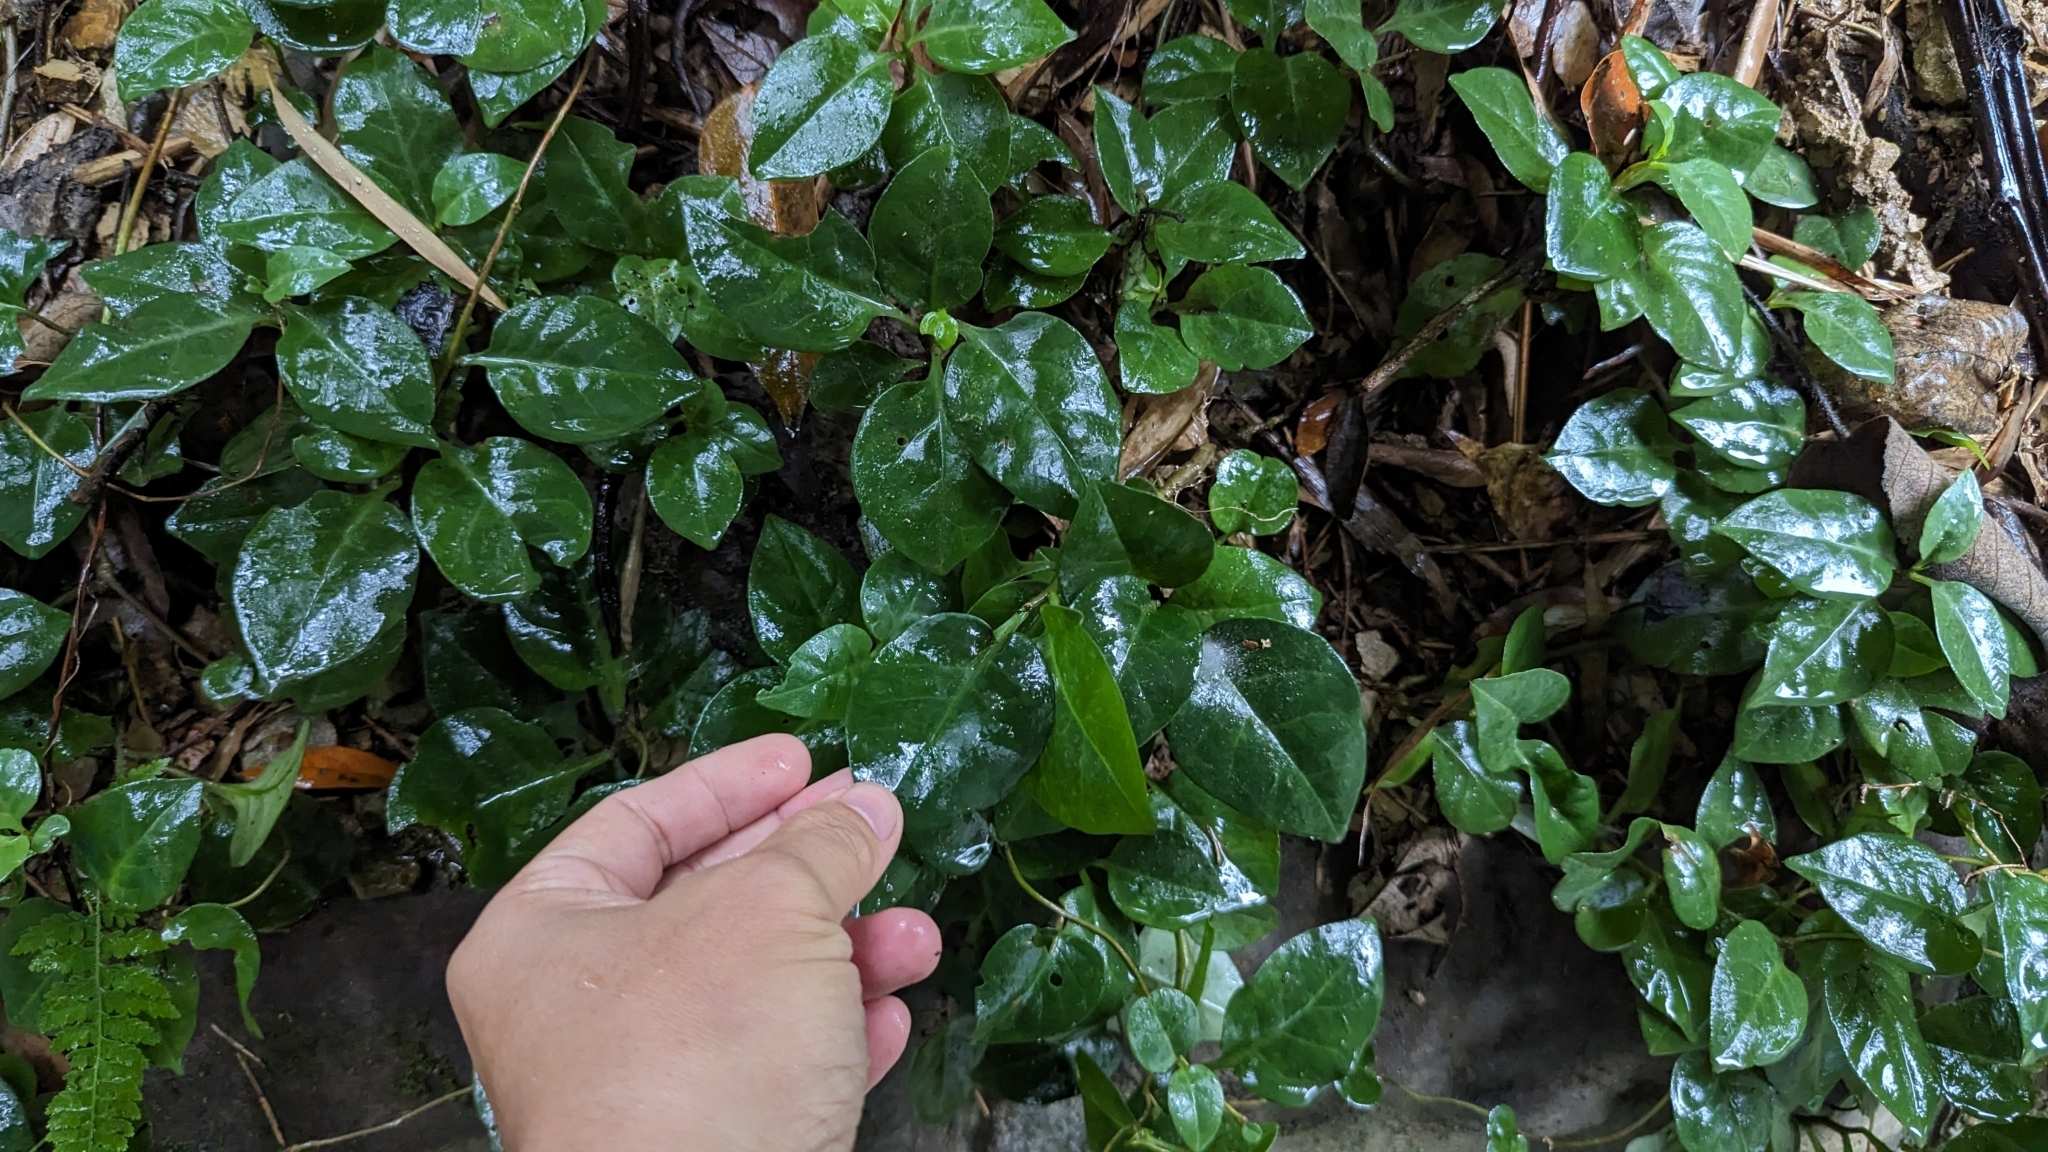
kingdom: Plantae
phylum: Tracheophyta
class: Magnoliopsida
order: Caryophyllales
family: Basellaceae
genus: Anredera
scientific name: Anredera cordifolia
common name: Heartleaf madeiravine
